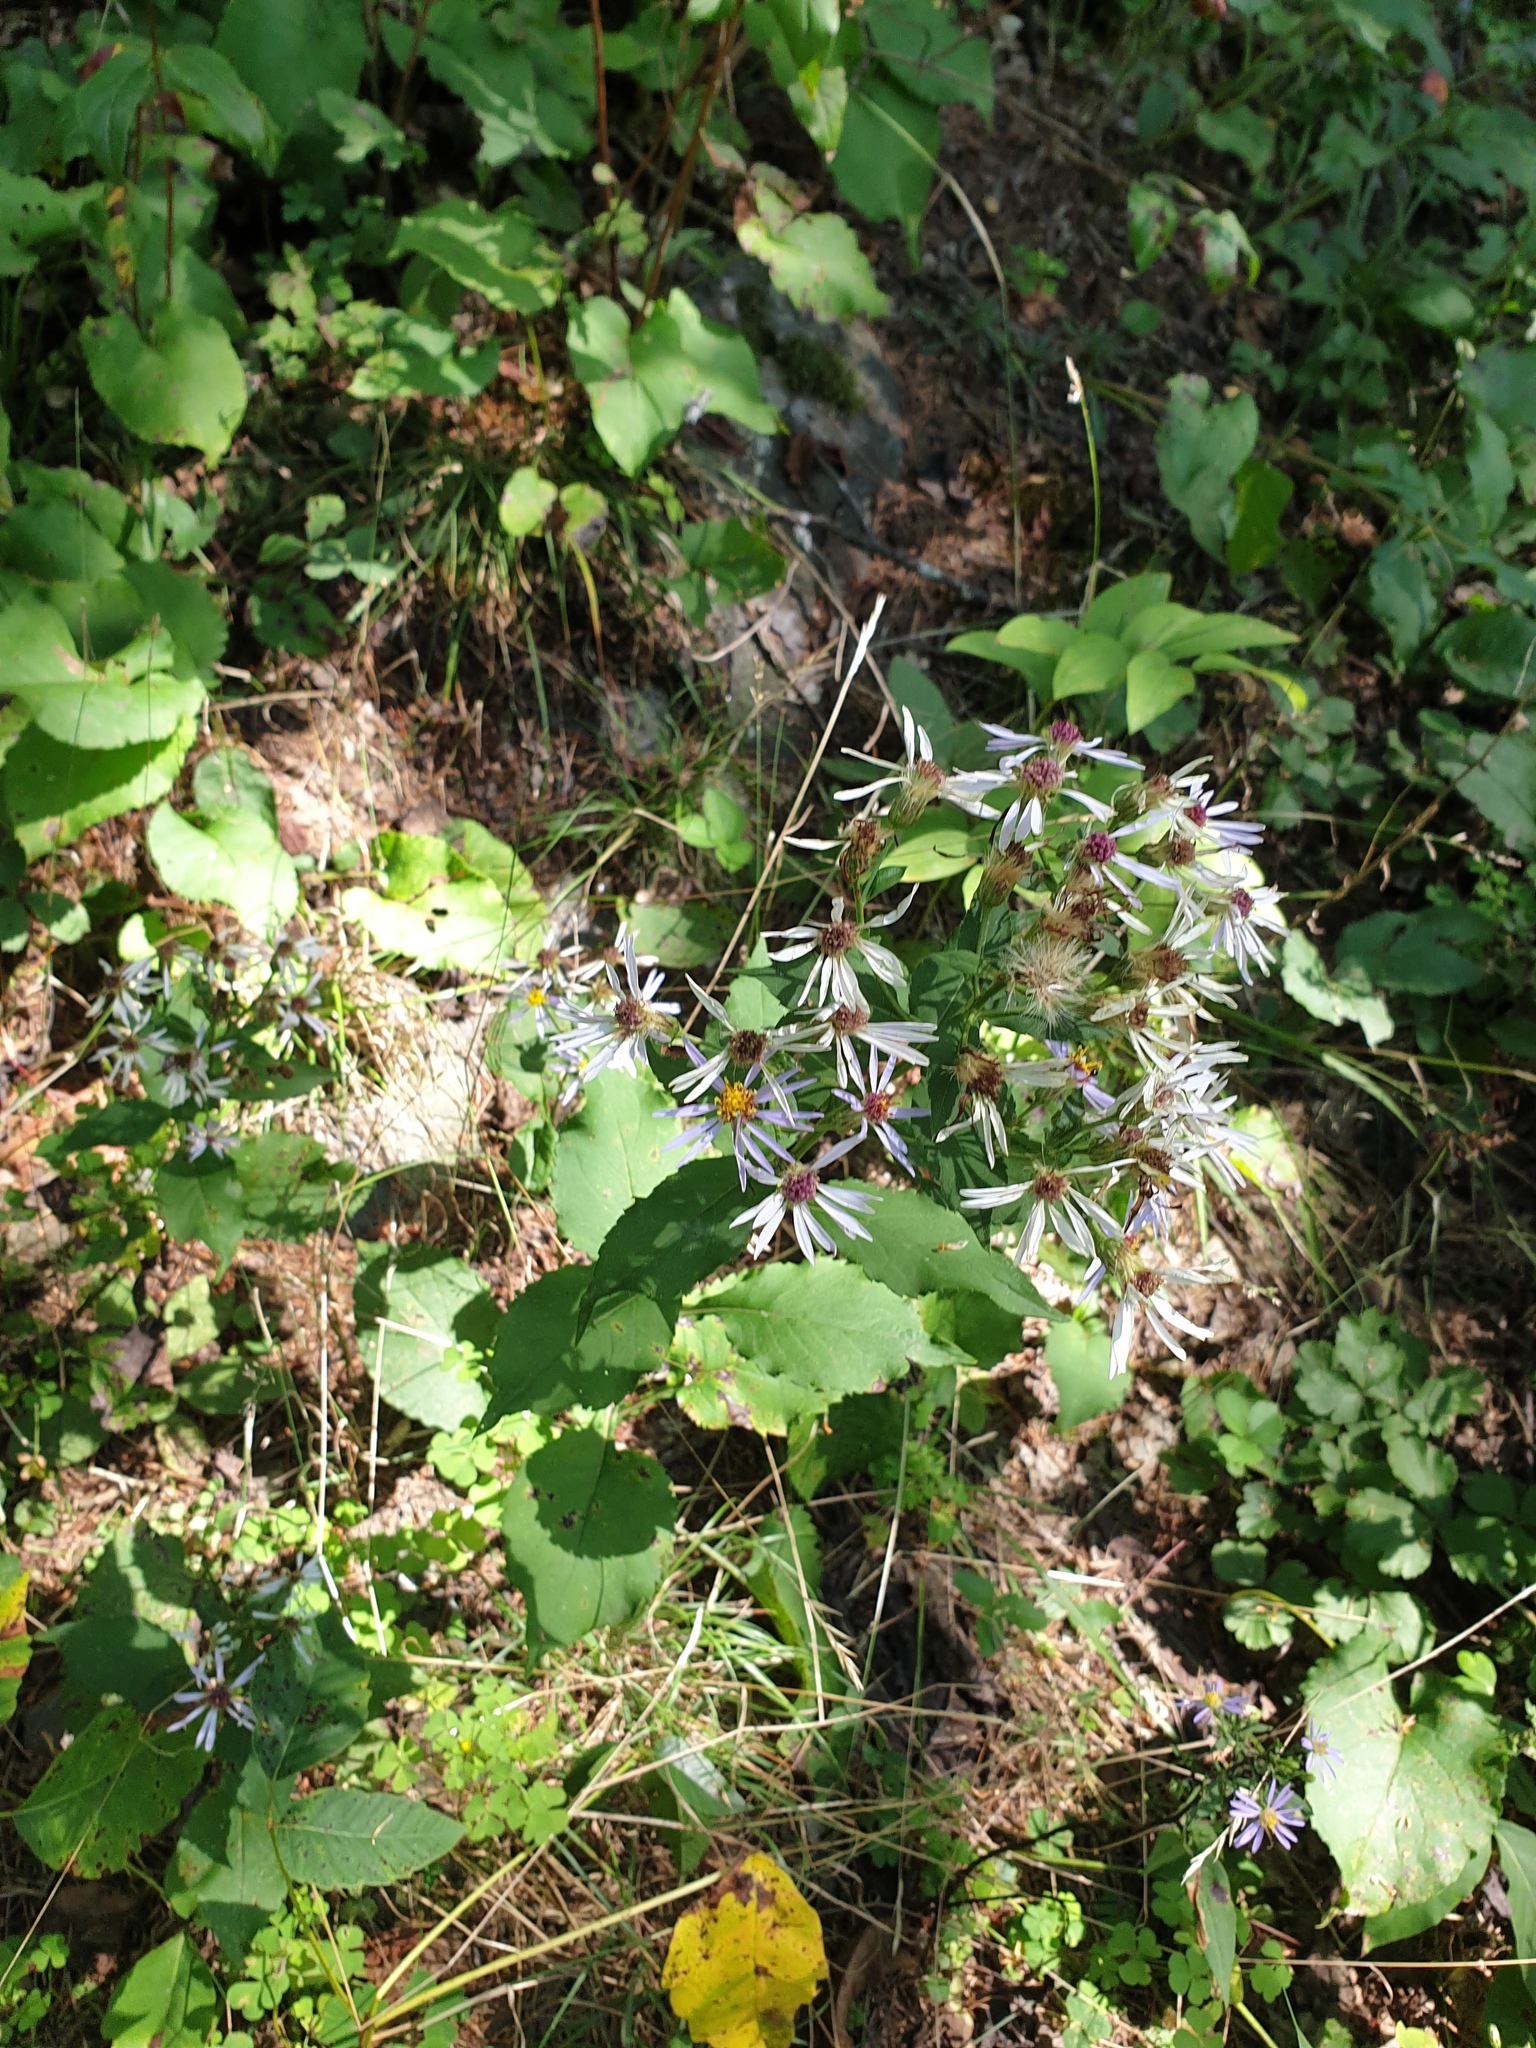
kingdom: Plantae
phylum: Tracheophyta
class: Magnoliopsida
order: Asterales
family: Asteraceae
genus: Eurybia
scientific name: Eurybia macrophylla
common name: Big-leaved aster
